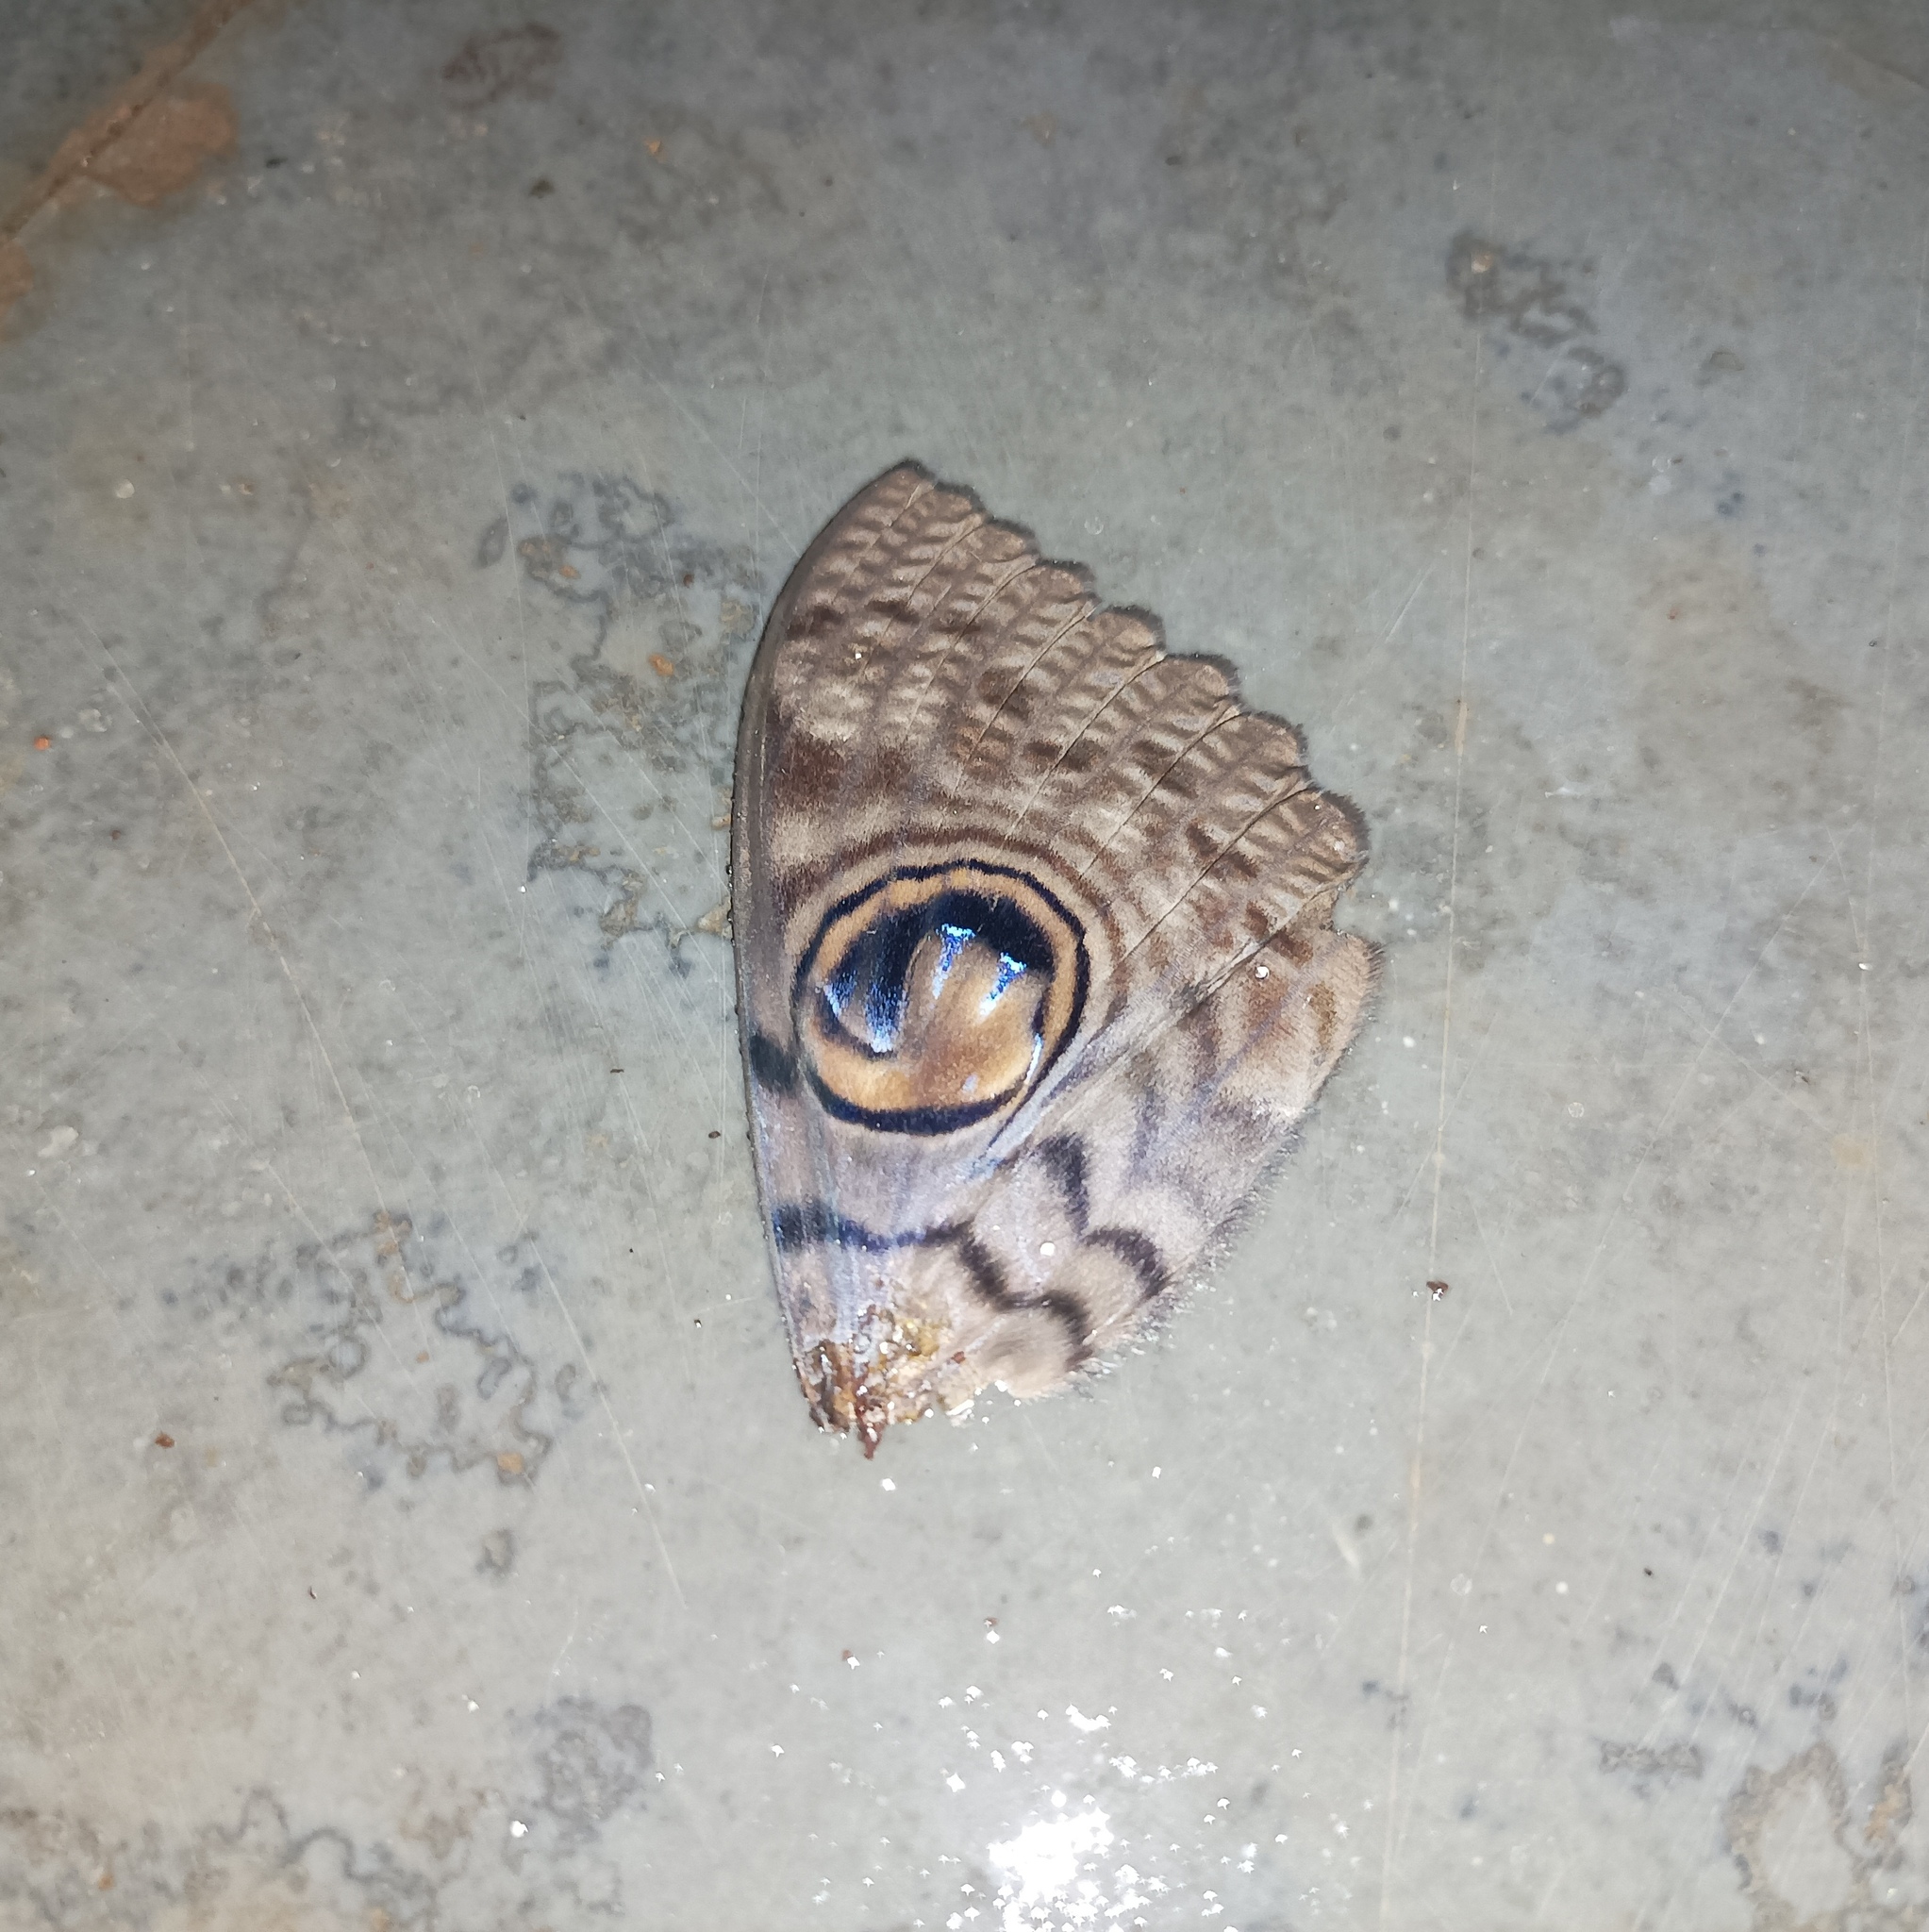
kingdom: Animalia
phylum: Arthropoda
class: Insecta
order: Lepidoptera
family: Erebidae
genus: Erebus
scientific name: Erebus macrops
